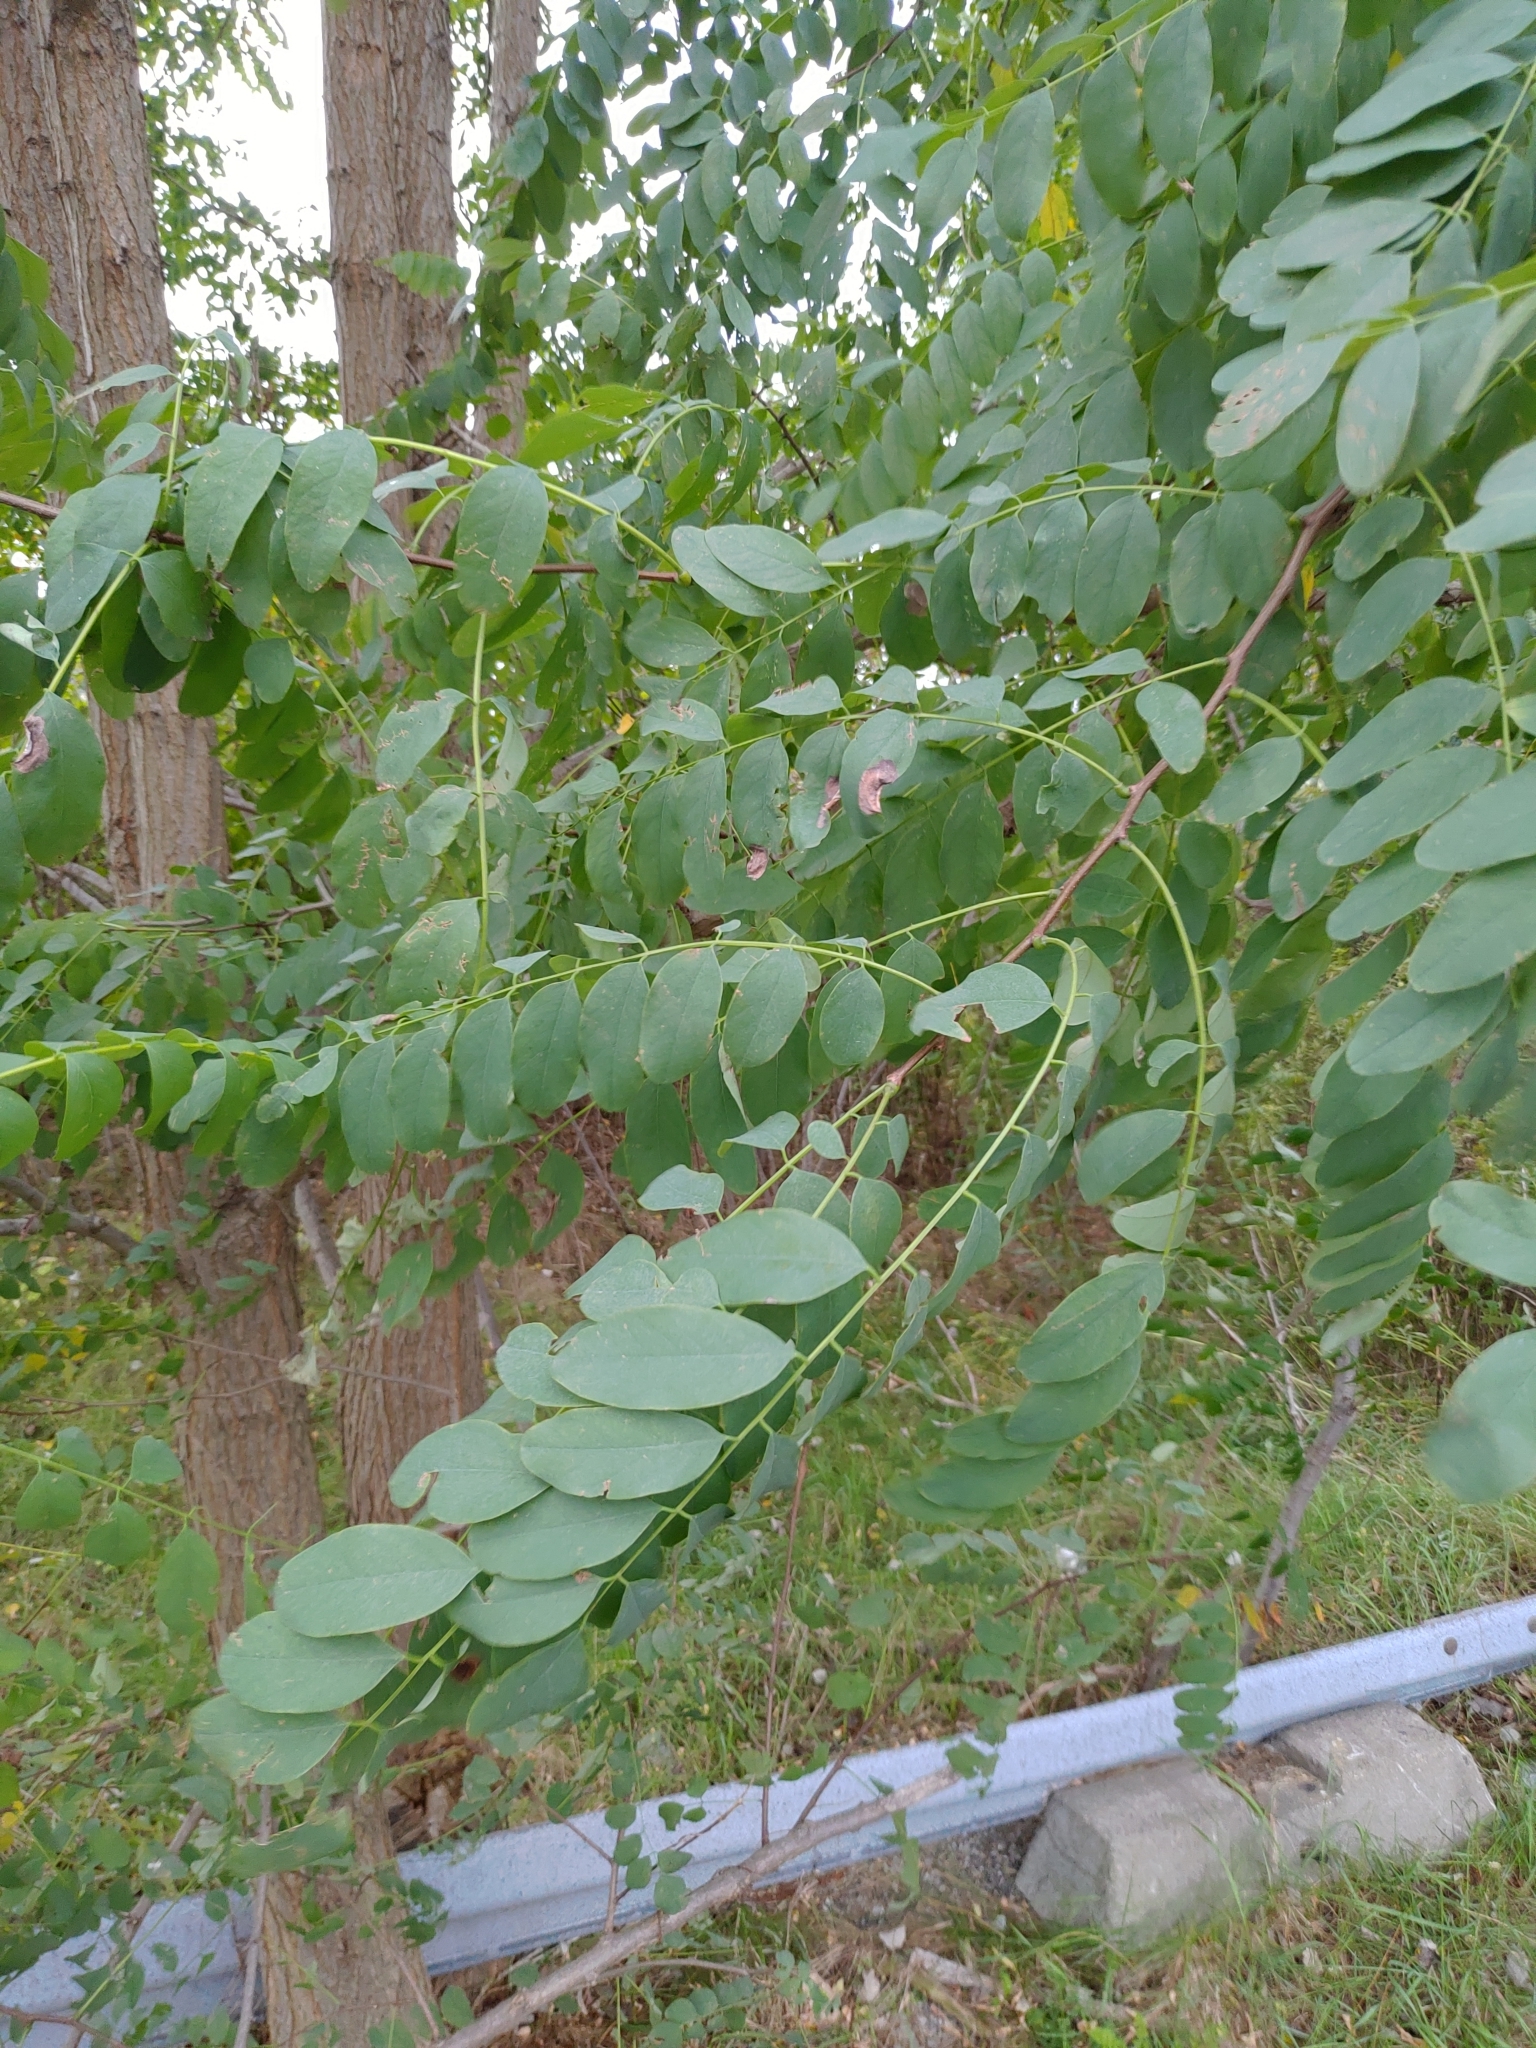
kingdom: Plantae
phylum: Tracheophyta
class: Magnoliopsida
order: Fabales
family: Fabaceae
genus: Robinia
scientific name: Robinia pseudoacacia
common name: Black locust
